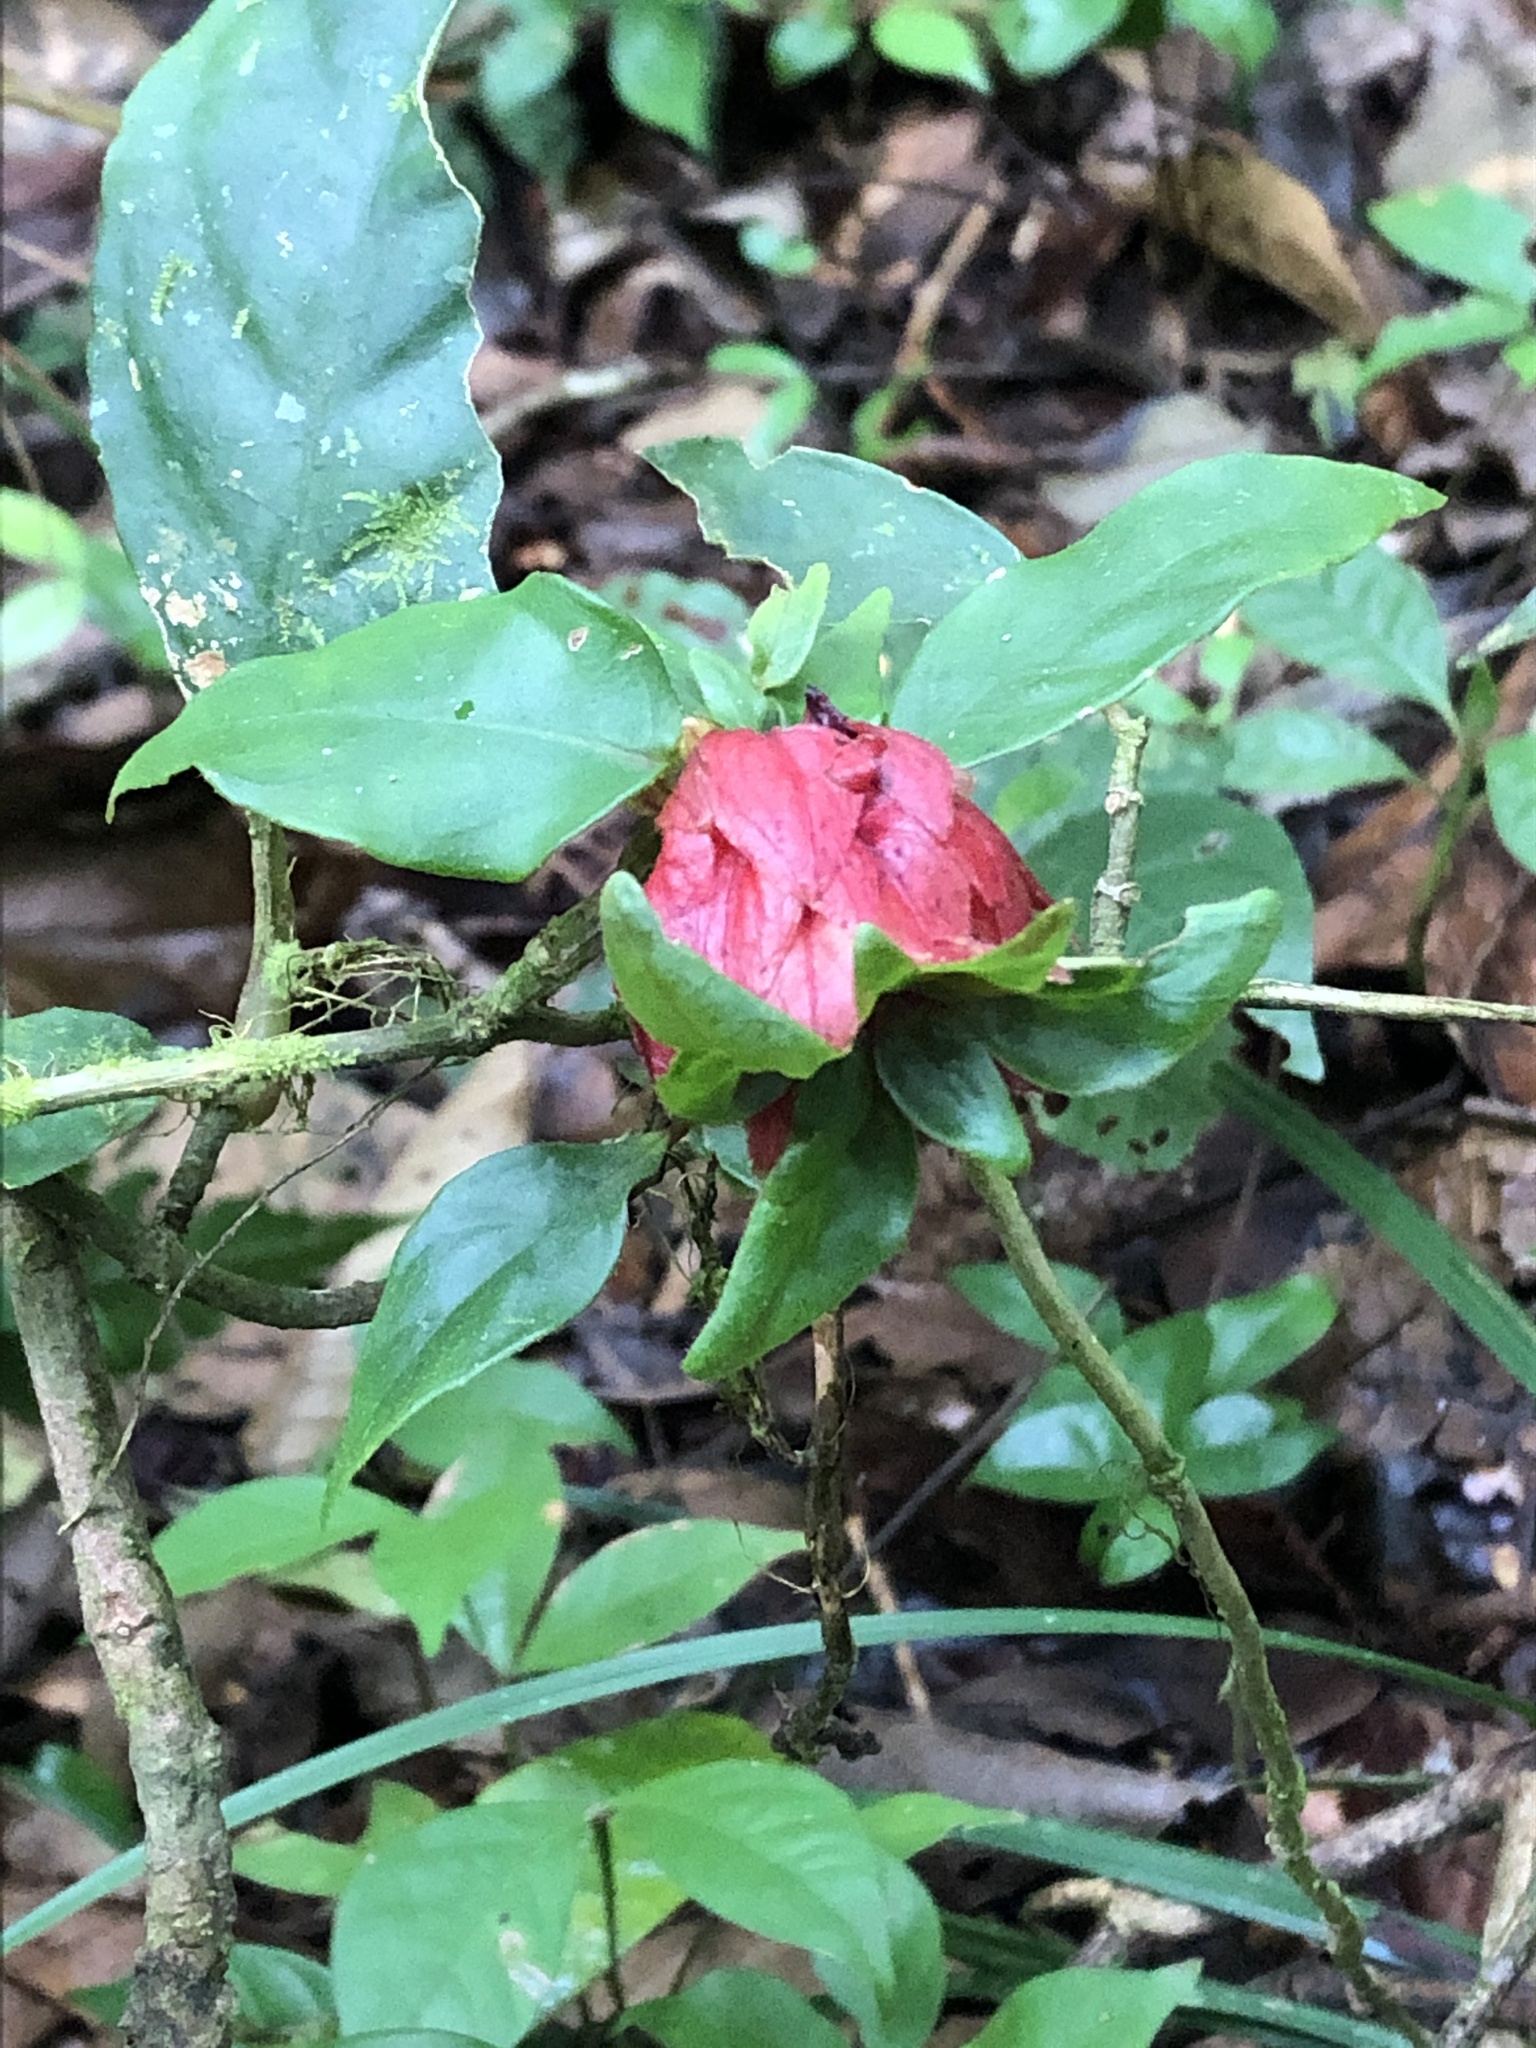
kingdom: Plantae
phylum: Tracheophyta
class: Magnoliopsida
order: Gentianales
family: Rubiaceae
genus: Palicourea
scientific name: Palicourea tomentosa
